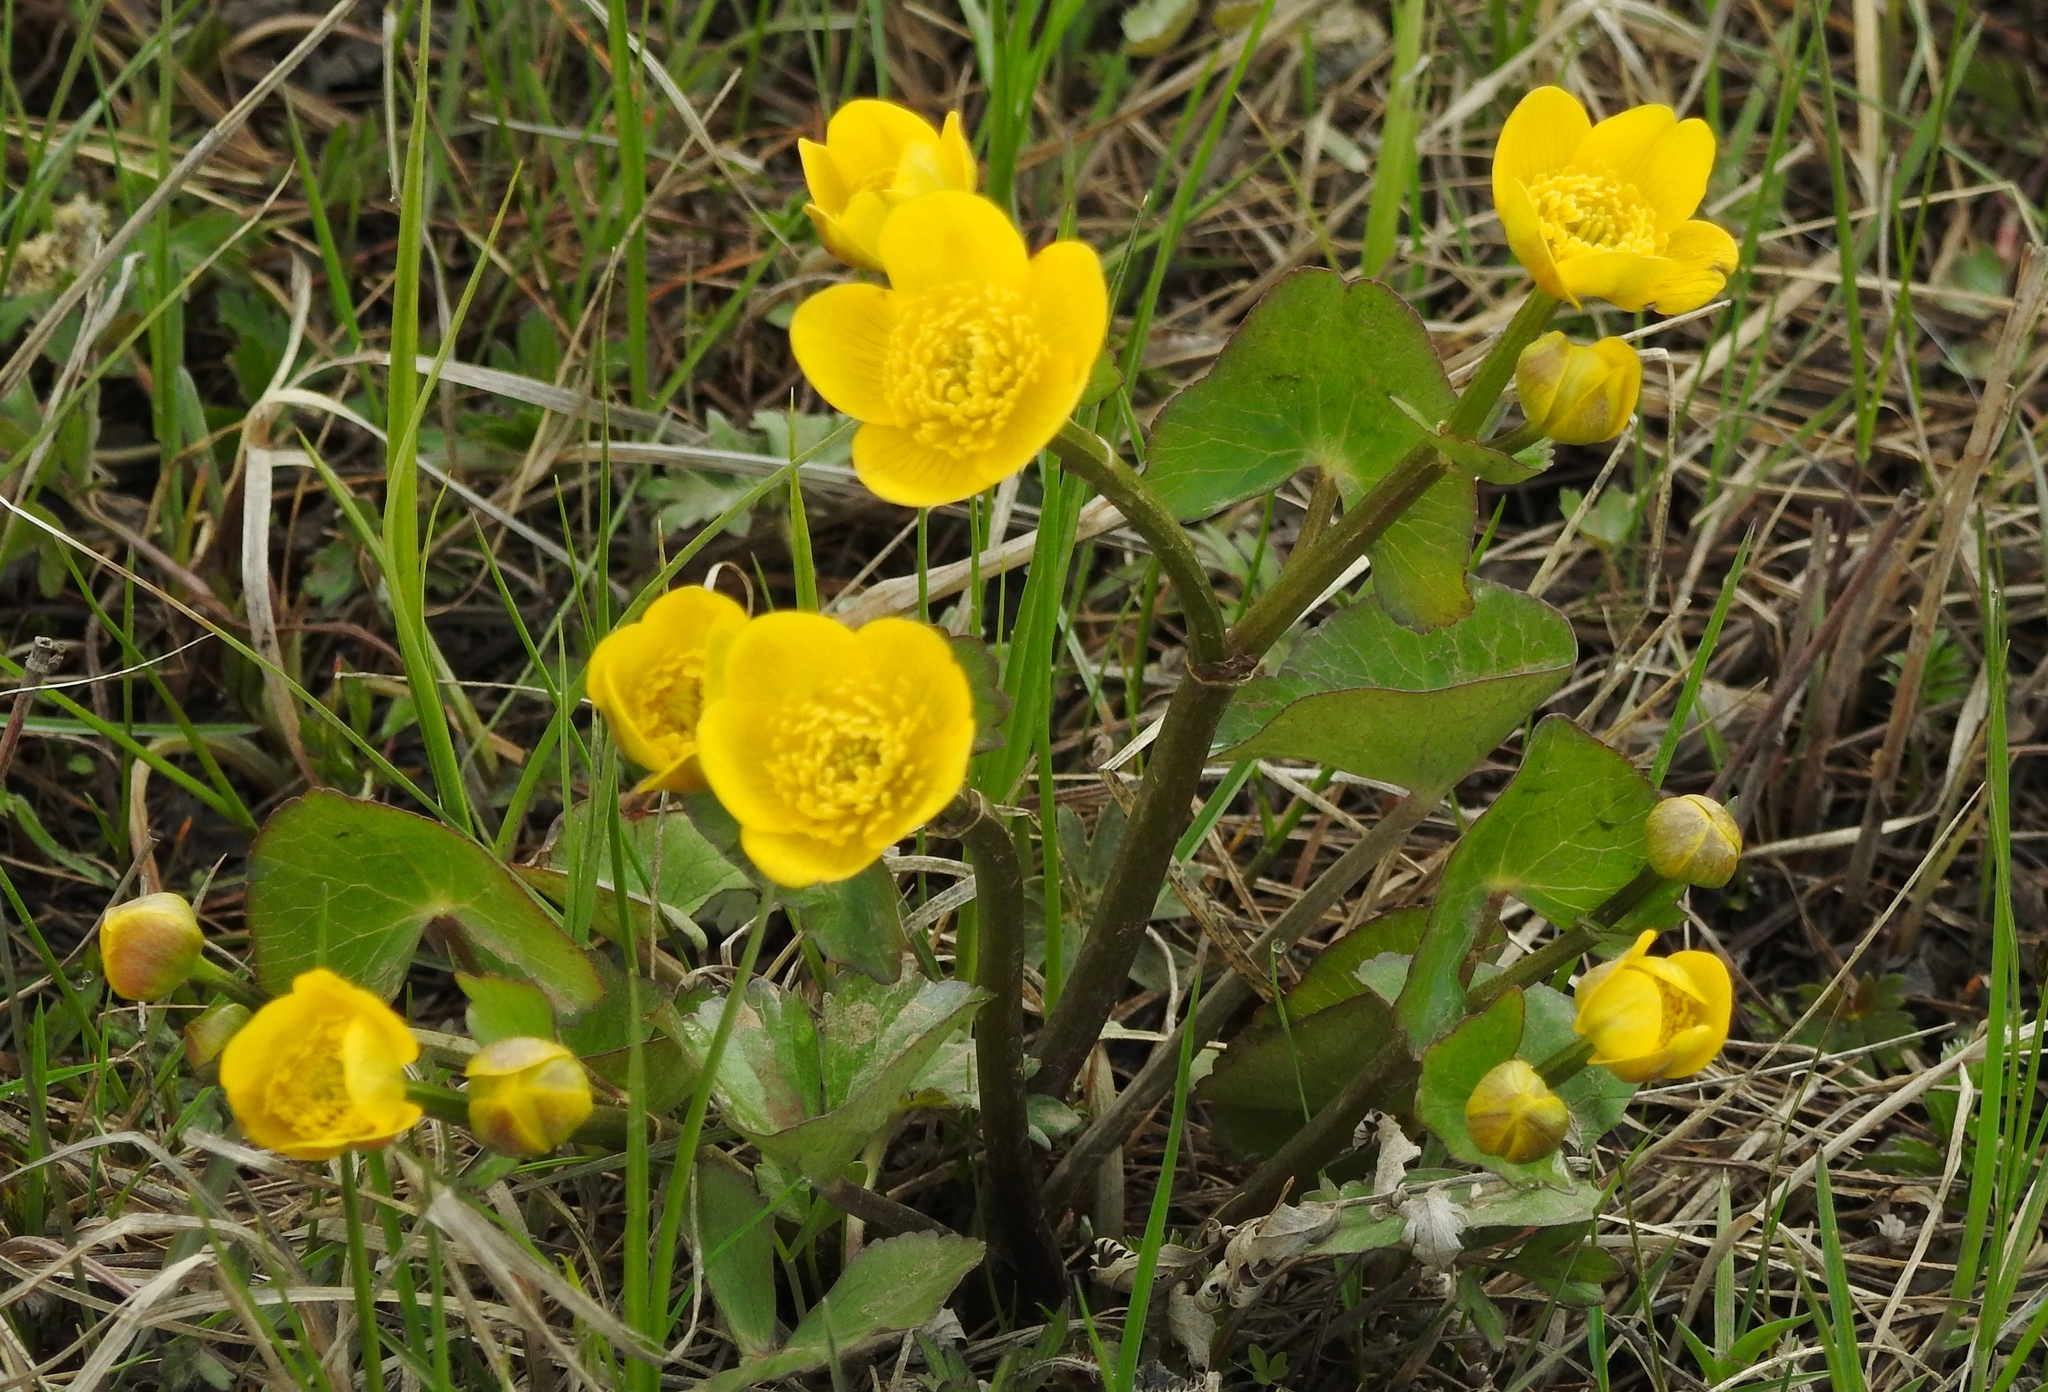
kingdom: Plantae
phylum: Tracheophyta
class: Magnoliopsida
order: Ranunculales
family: Ranunculaceae
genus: Caltha
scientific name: Caltha palustris
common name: Marsh marigold
